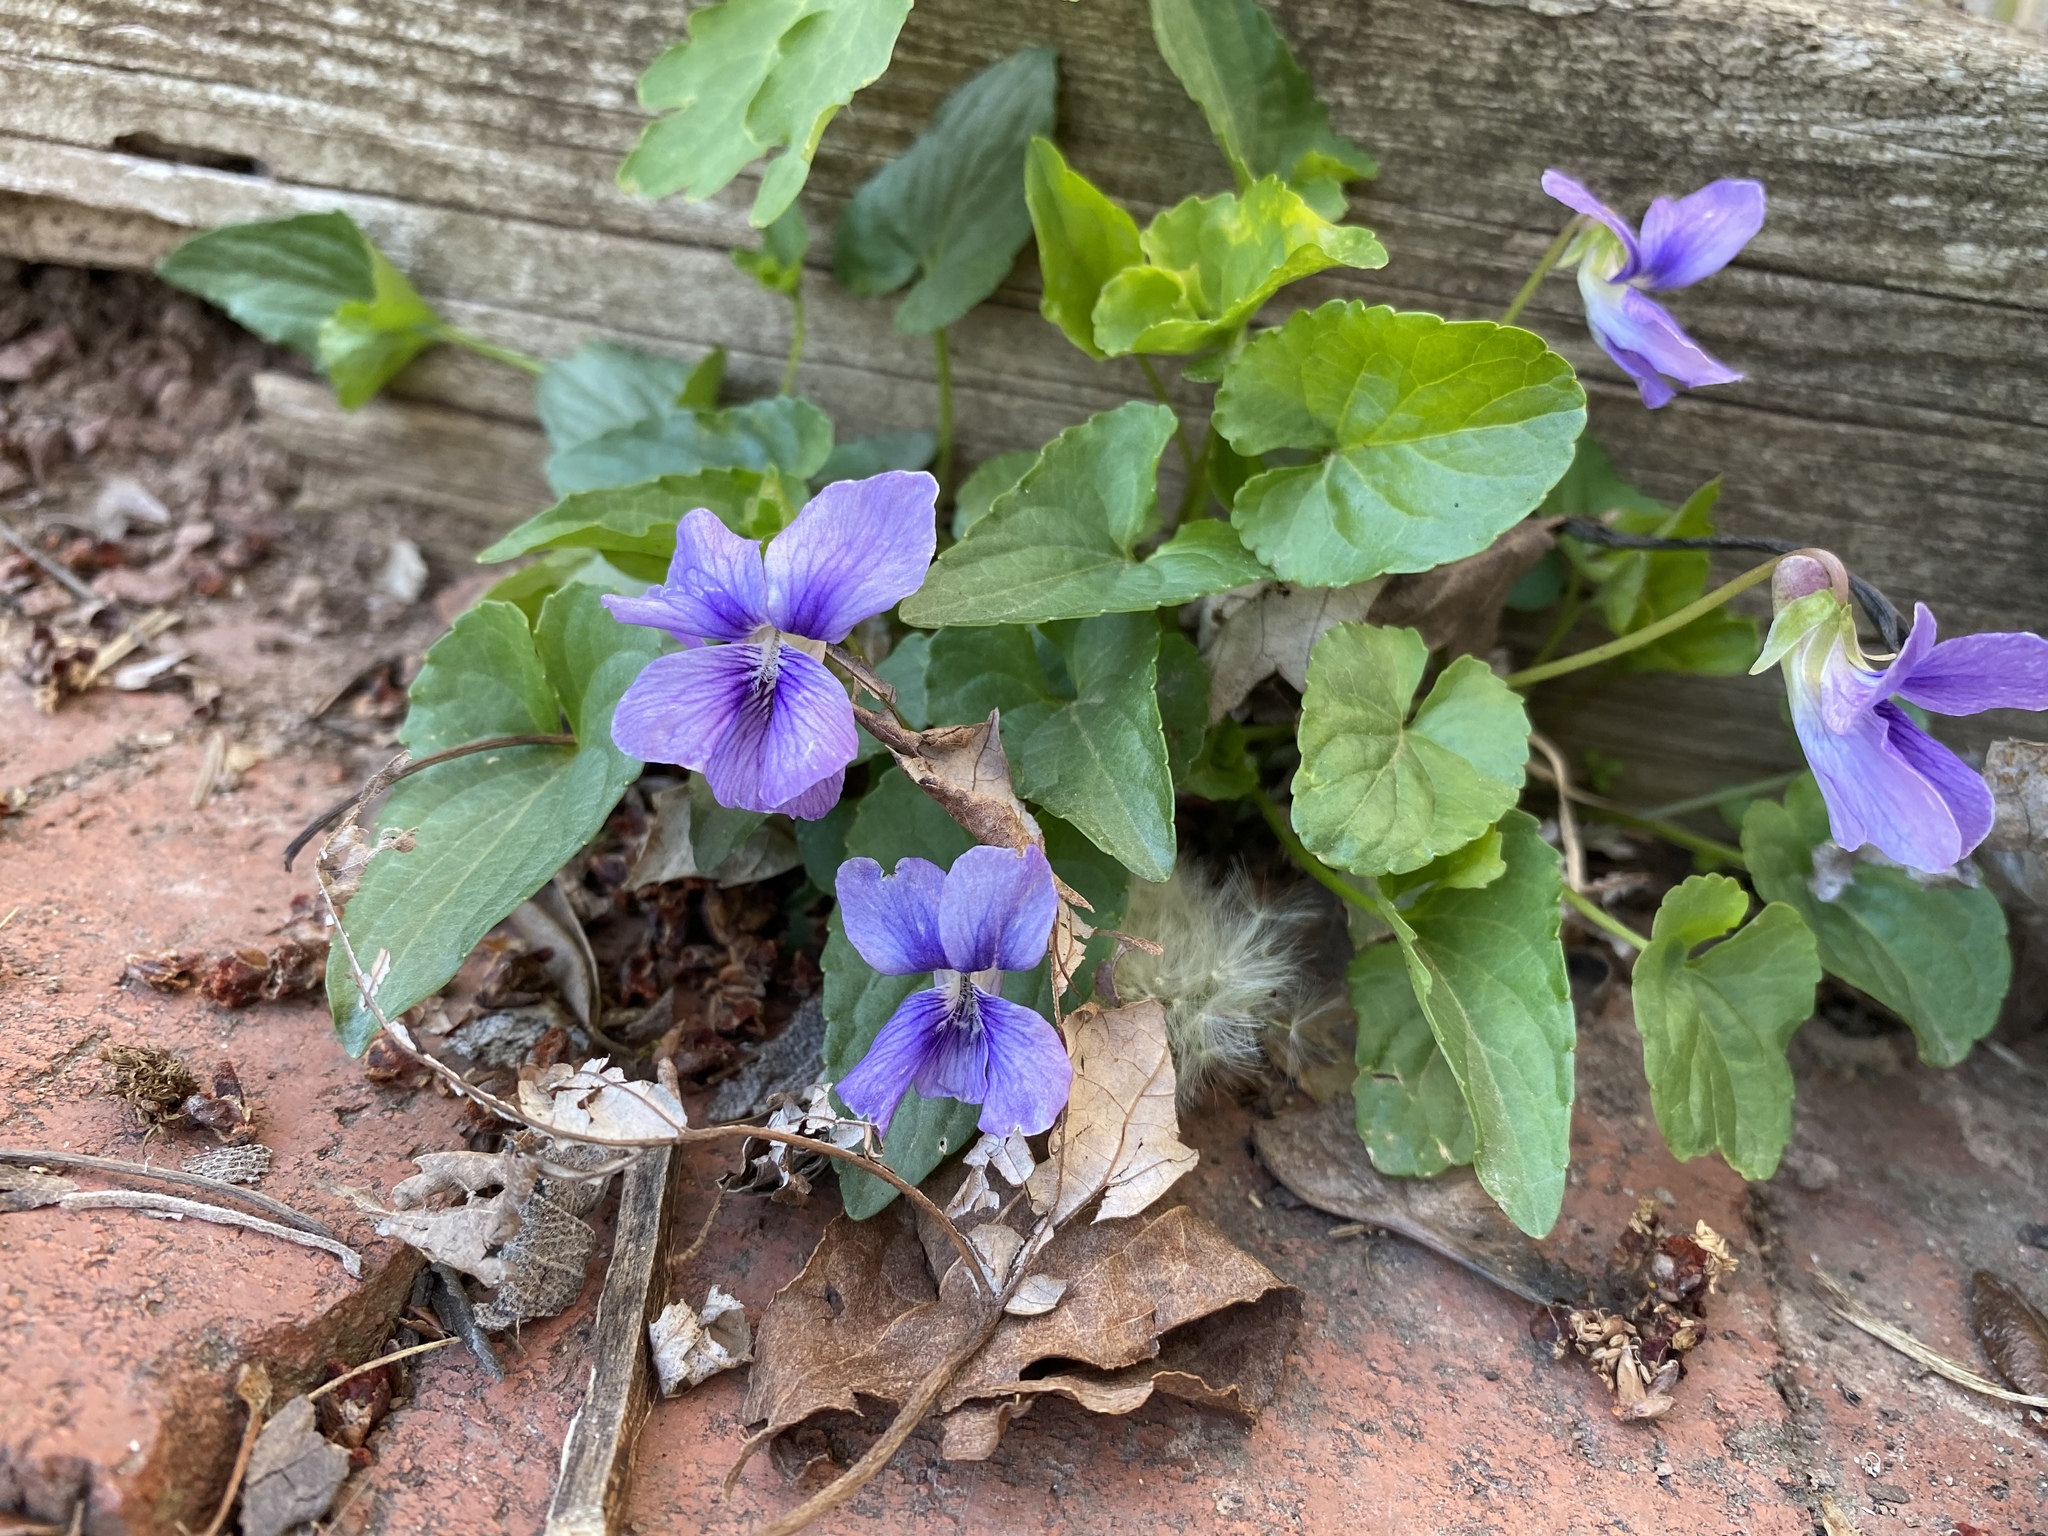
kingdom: Plantae
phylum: Tracheophyta
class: Magnoliopsida
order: Malpighiales
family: Violaceae
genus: Viola
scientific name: Viola sororia
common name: Dooryard violet
